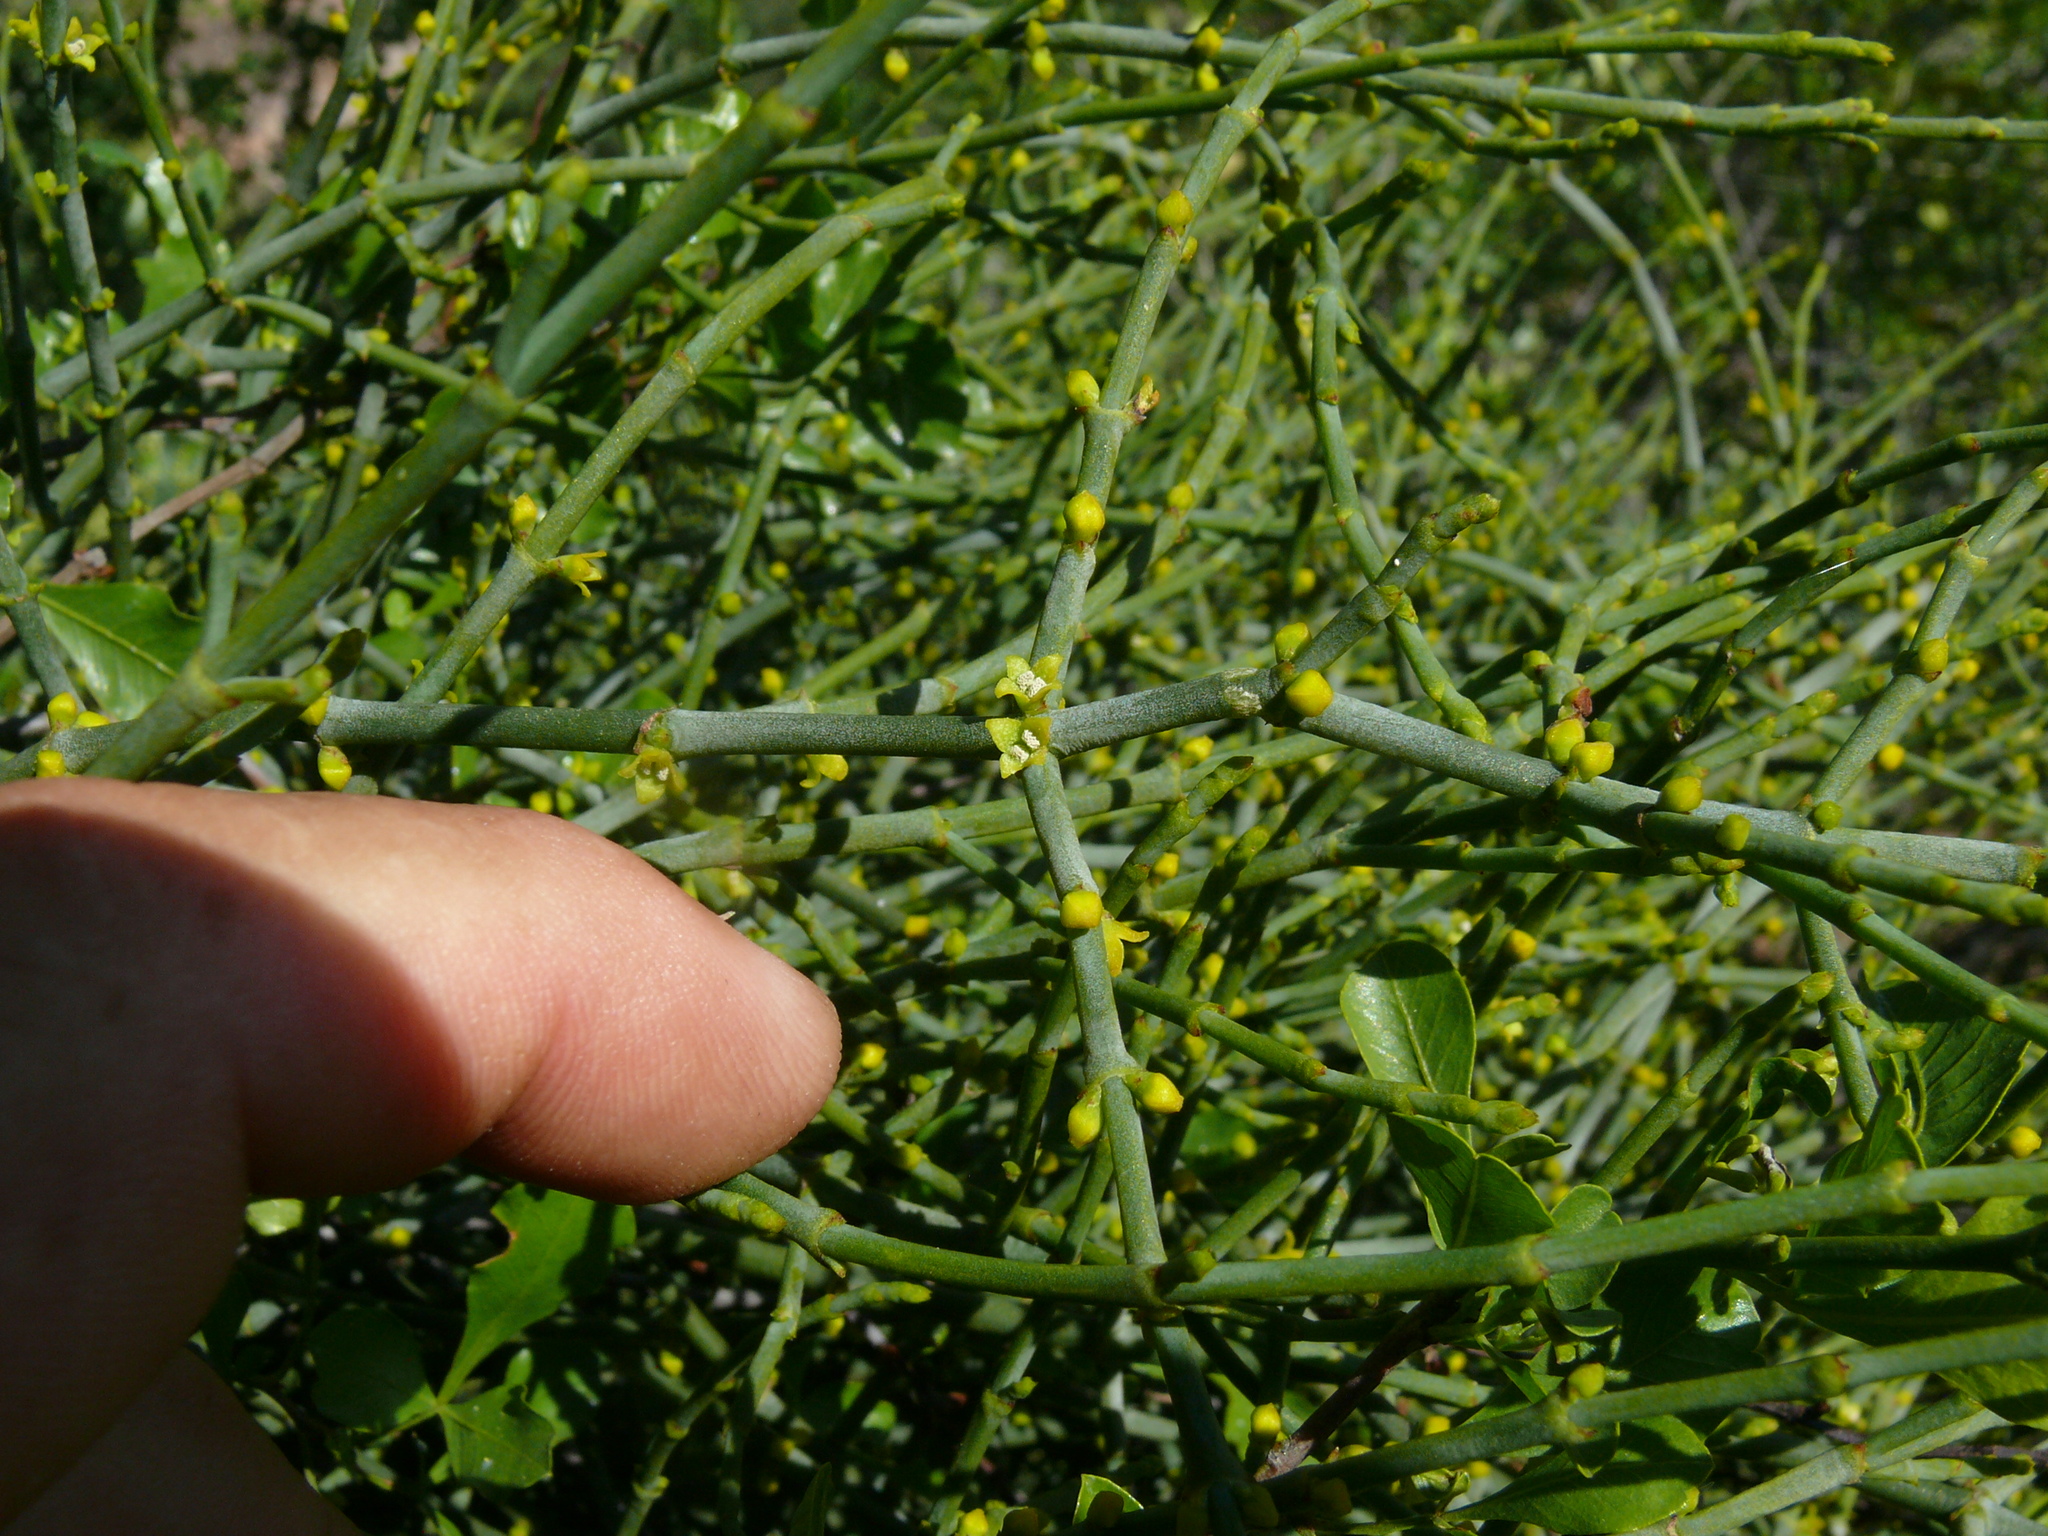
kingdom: Plantae
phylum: Tracheophyta
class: Magnoliopsida
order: Santalales
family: Viscaceae
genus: Viscum
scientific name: Viscum capense
